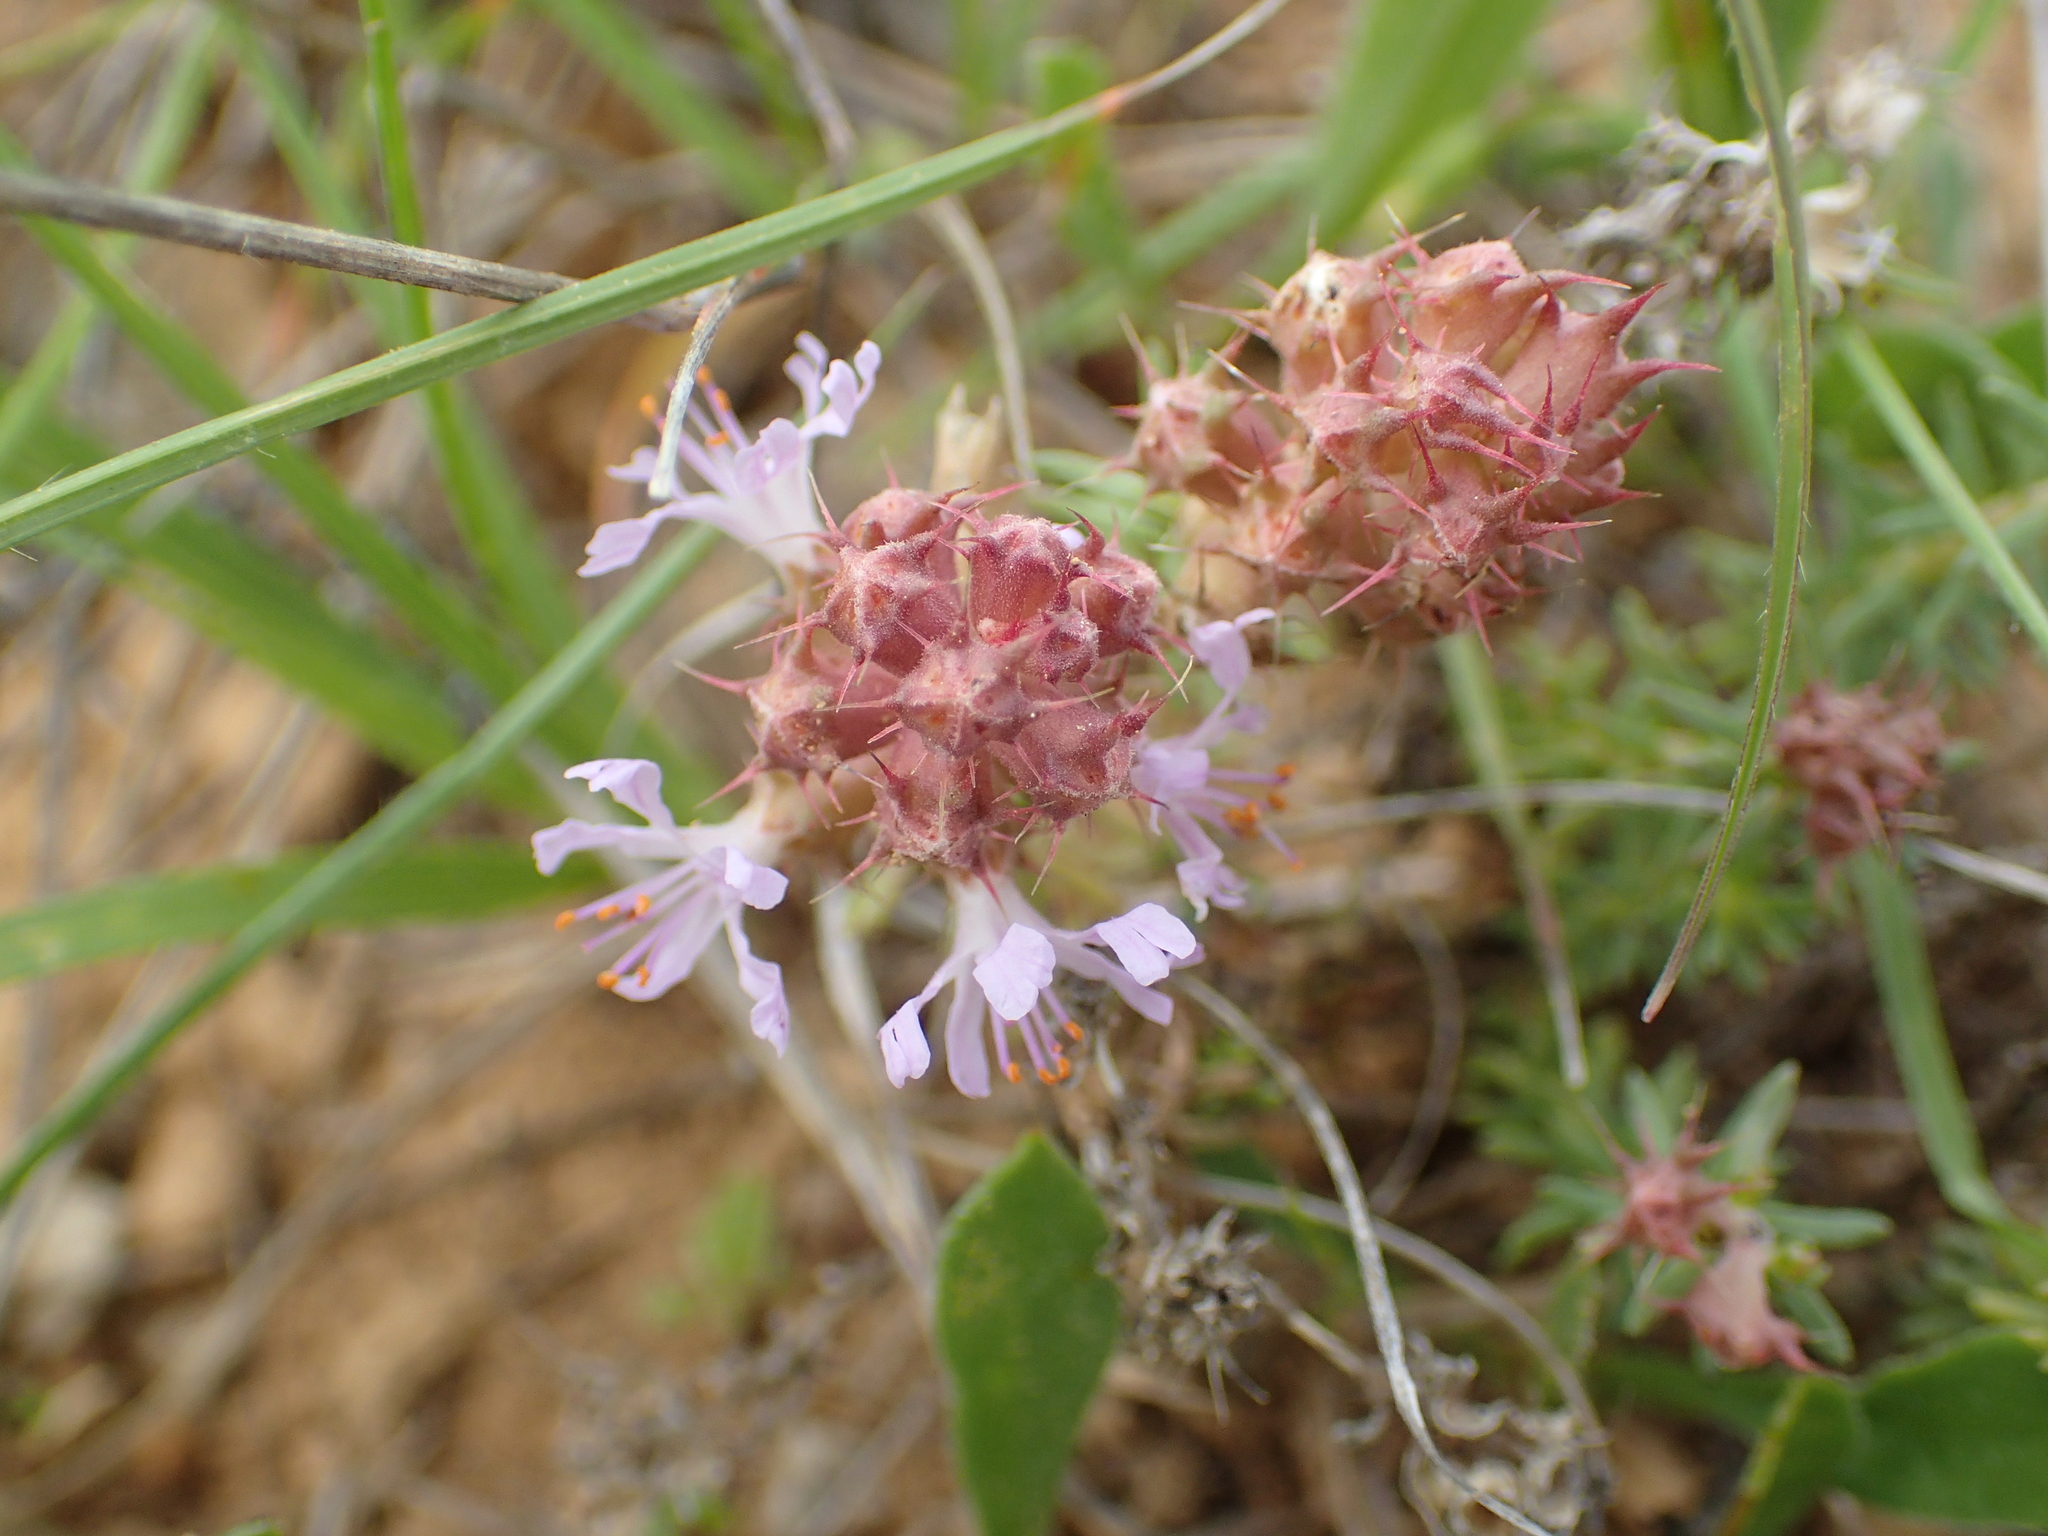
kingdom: Plantae
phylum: Tracheophyta
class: Magnoliopsida
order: Ericales
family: Primulaceae
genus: Coris
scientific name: Coris monspeliensis
